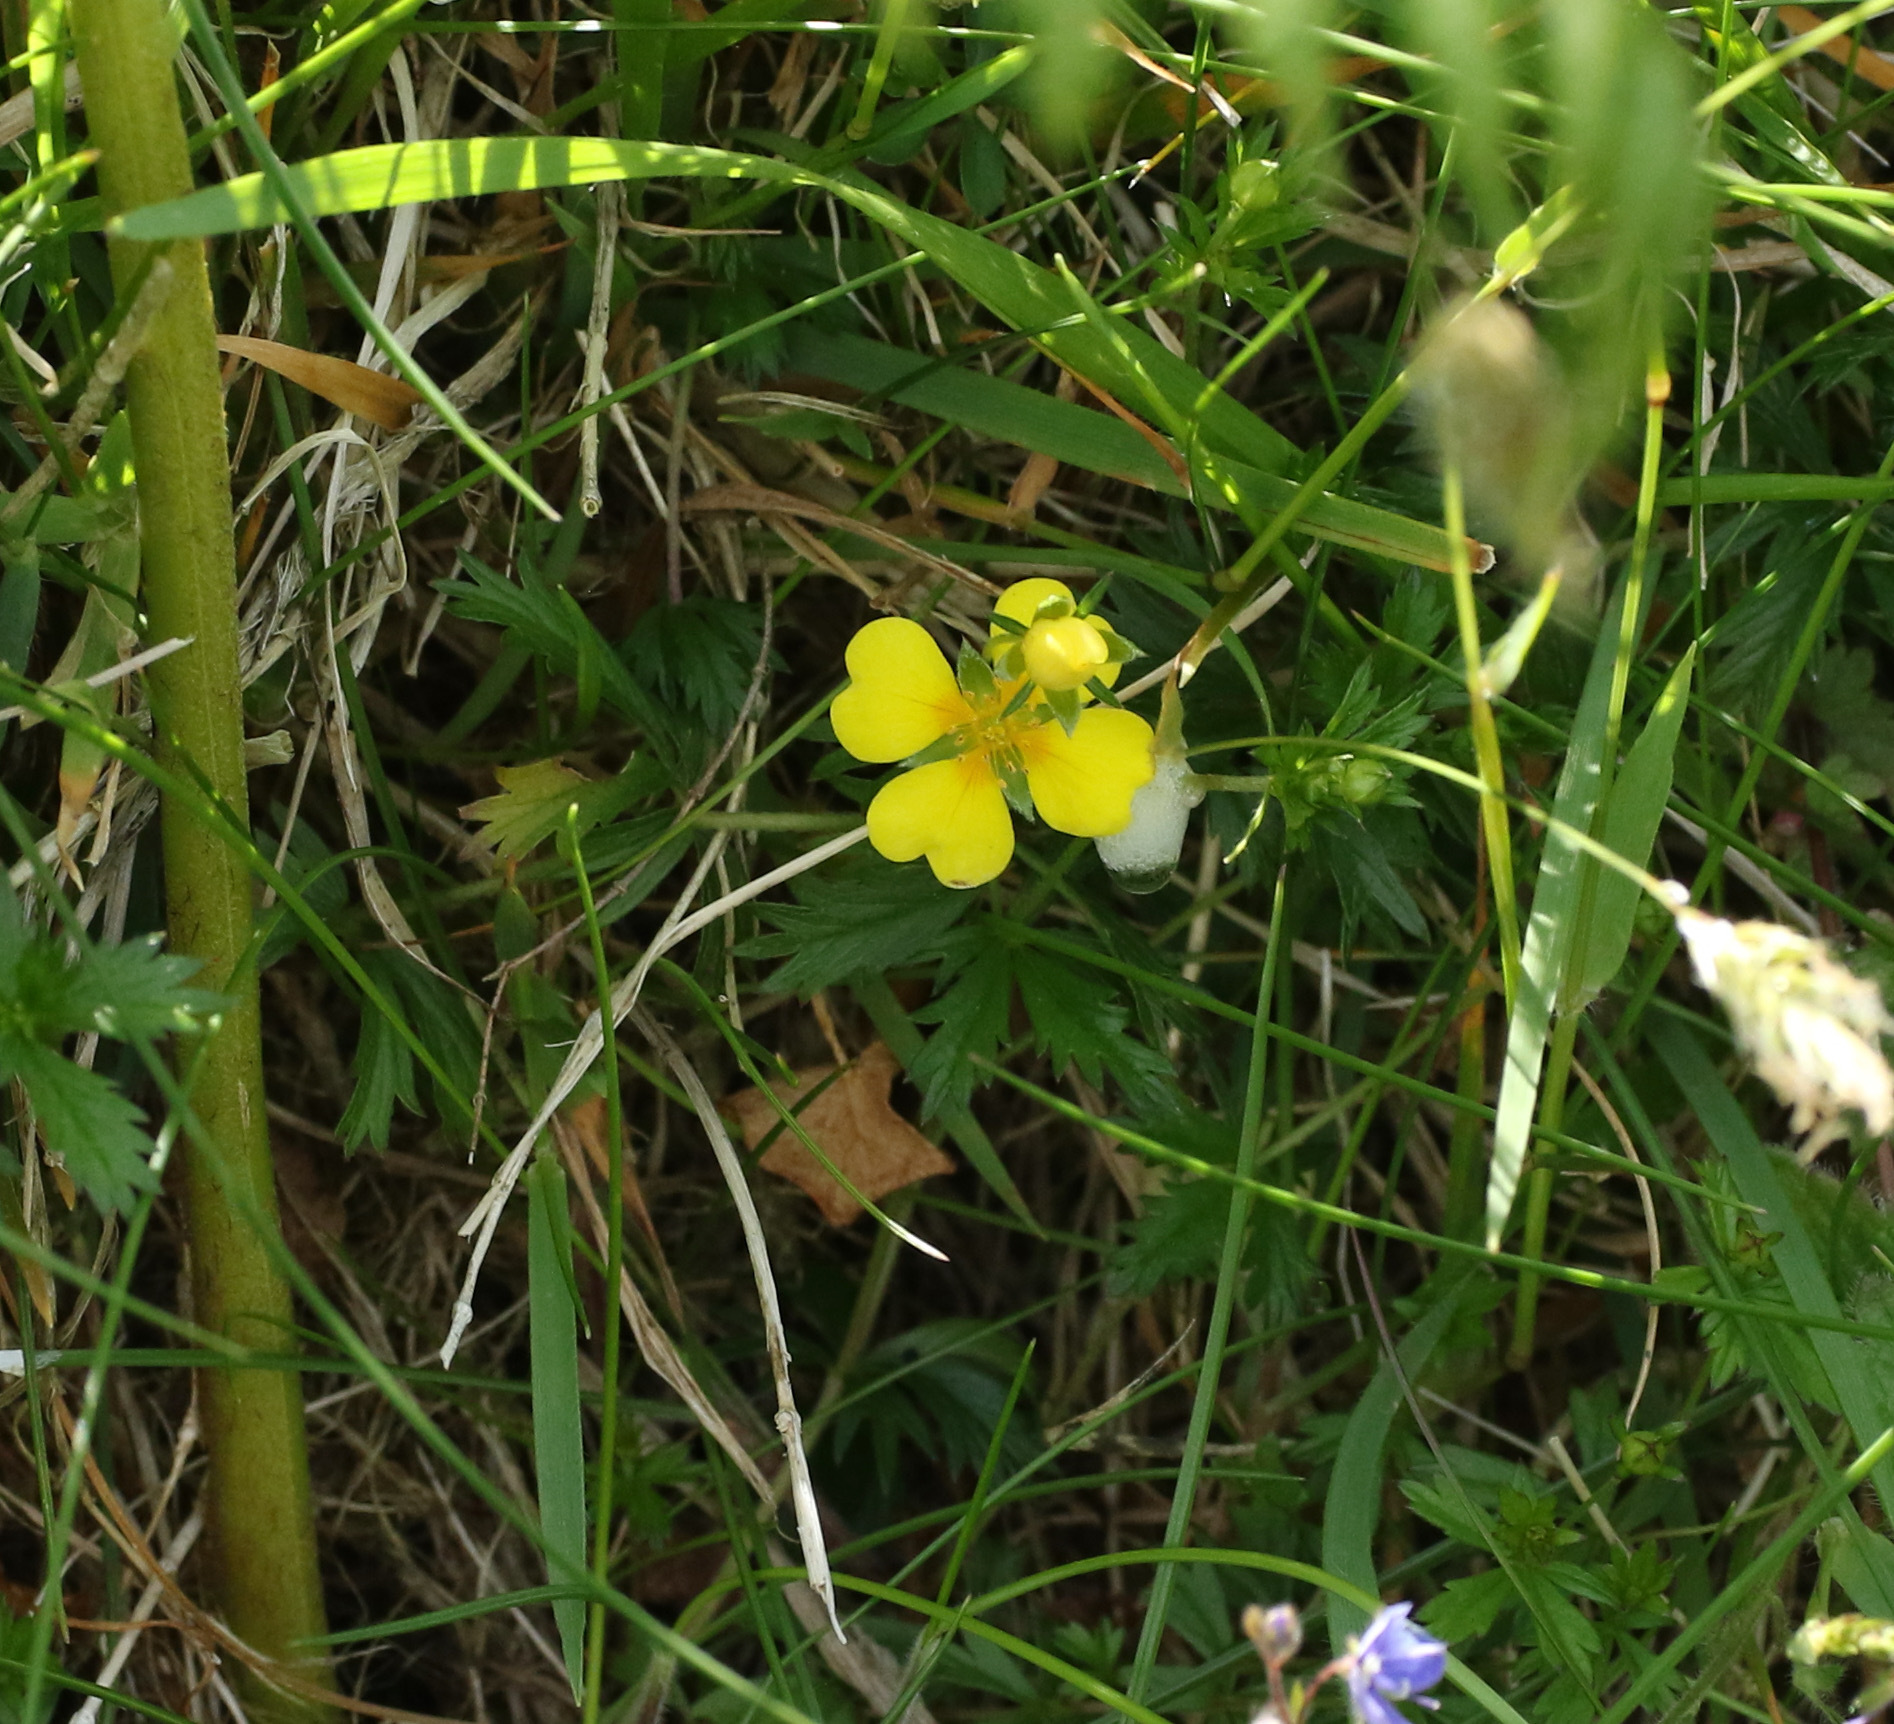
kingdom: Plantae
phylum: Tracheophyta
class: Magnoliopsida
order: Rosales
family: Rosaceae
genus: Potentilla
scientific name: Potentilla erecta
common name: Tormentil
